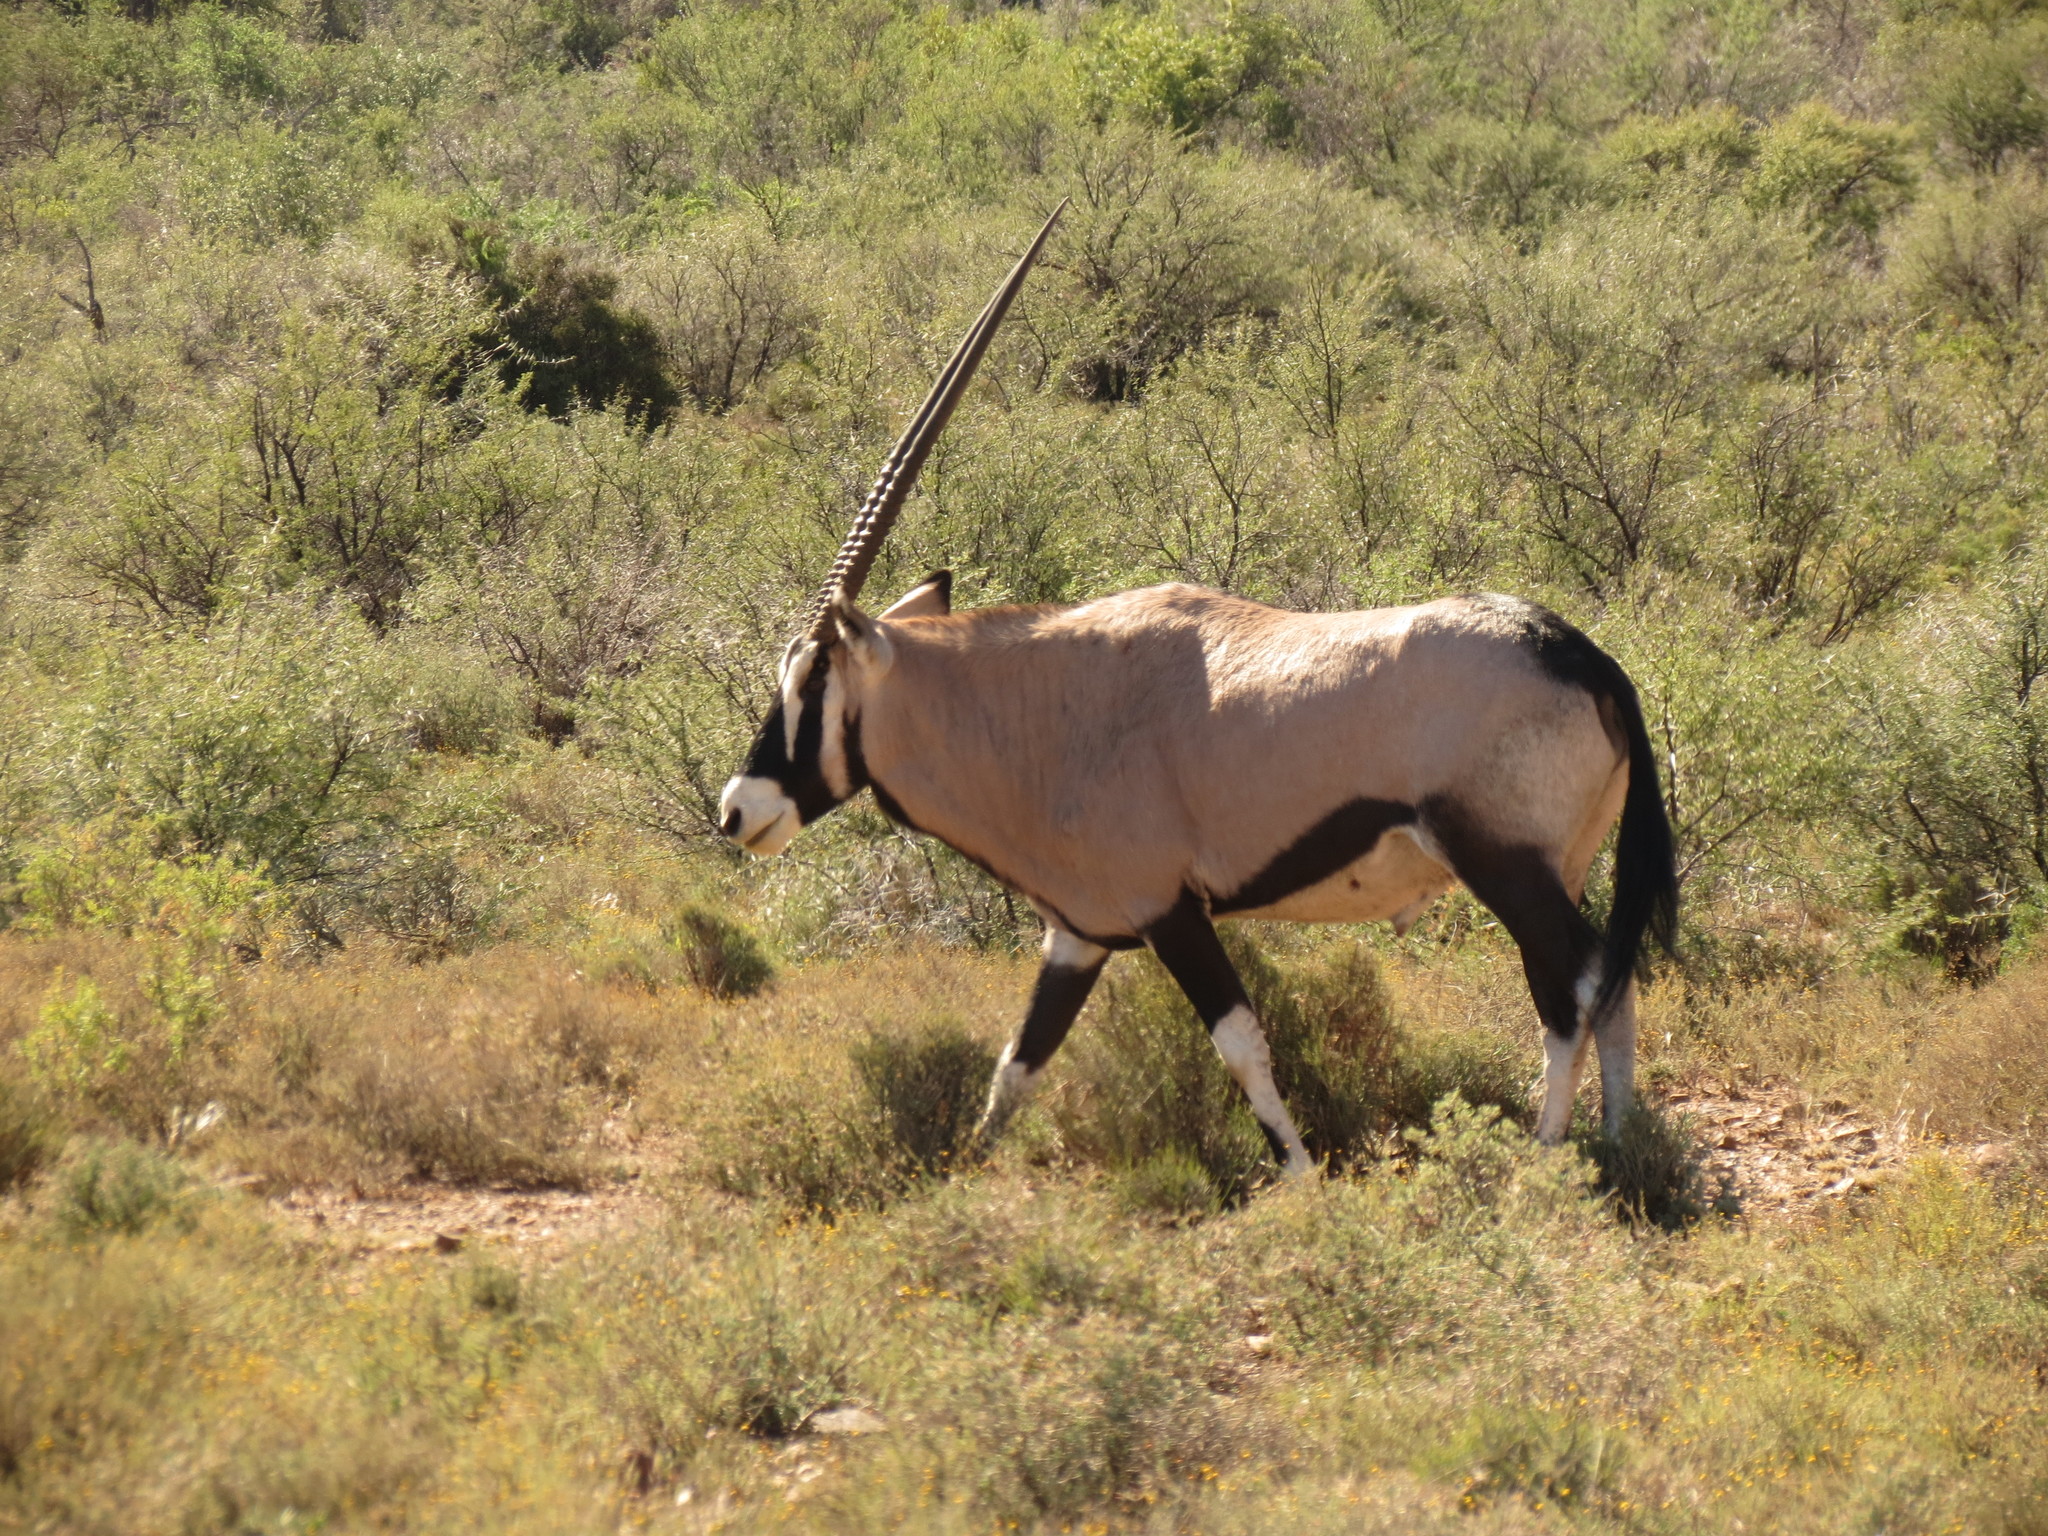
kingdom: Animalia
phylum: Chordata
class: Mammalia
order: Artiodactyla
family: Bovidae
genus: Oryx
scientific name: Oryx gazella
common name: Gemsbok
